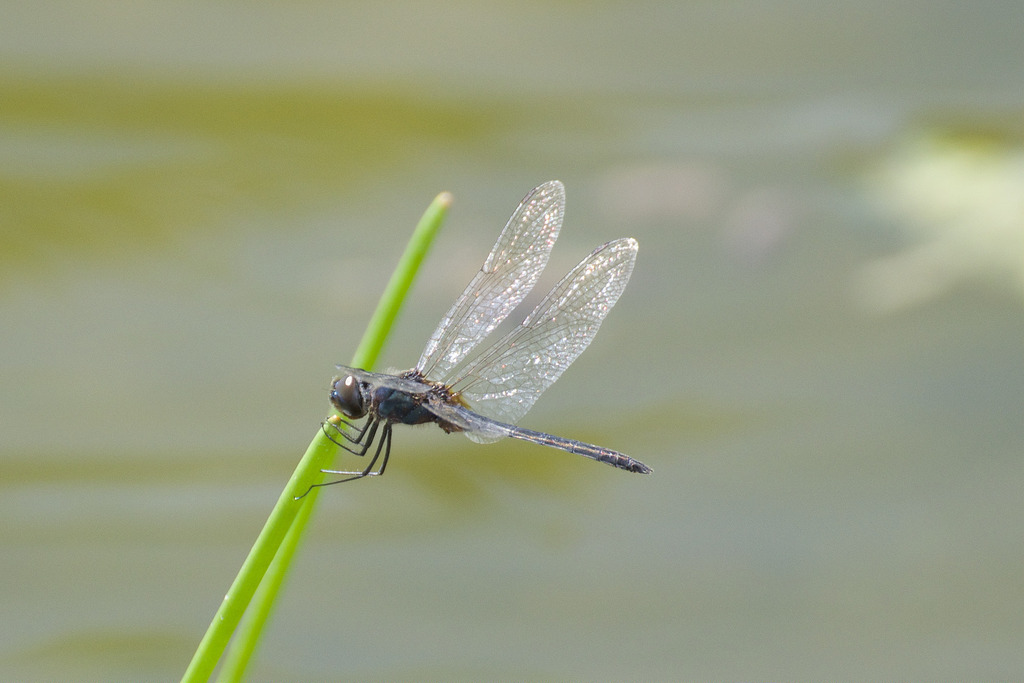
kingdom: Animalia
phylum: Arthropoda
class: Insecta
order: Odonata
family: Libellulidae
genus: Idiataphe
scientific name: Idiataphe cubensis
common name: Metallic pennant
